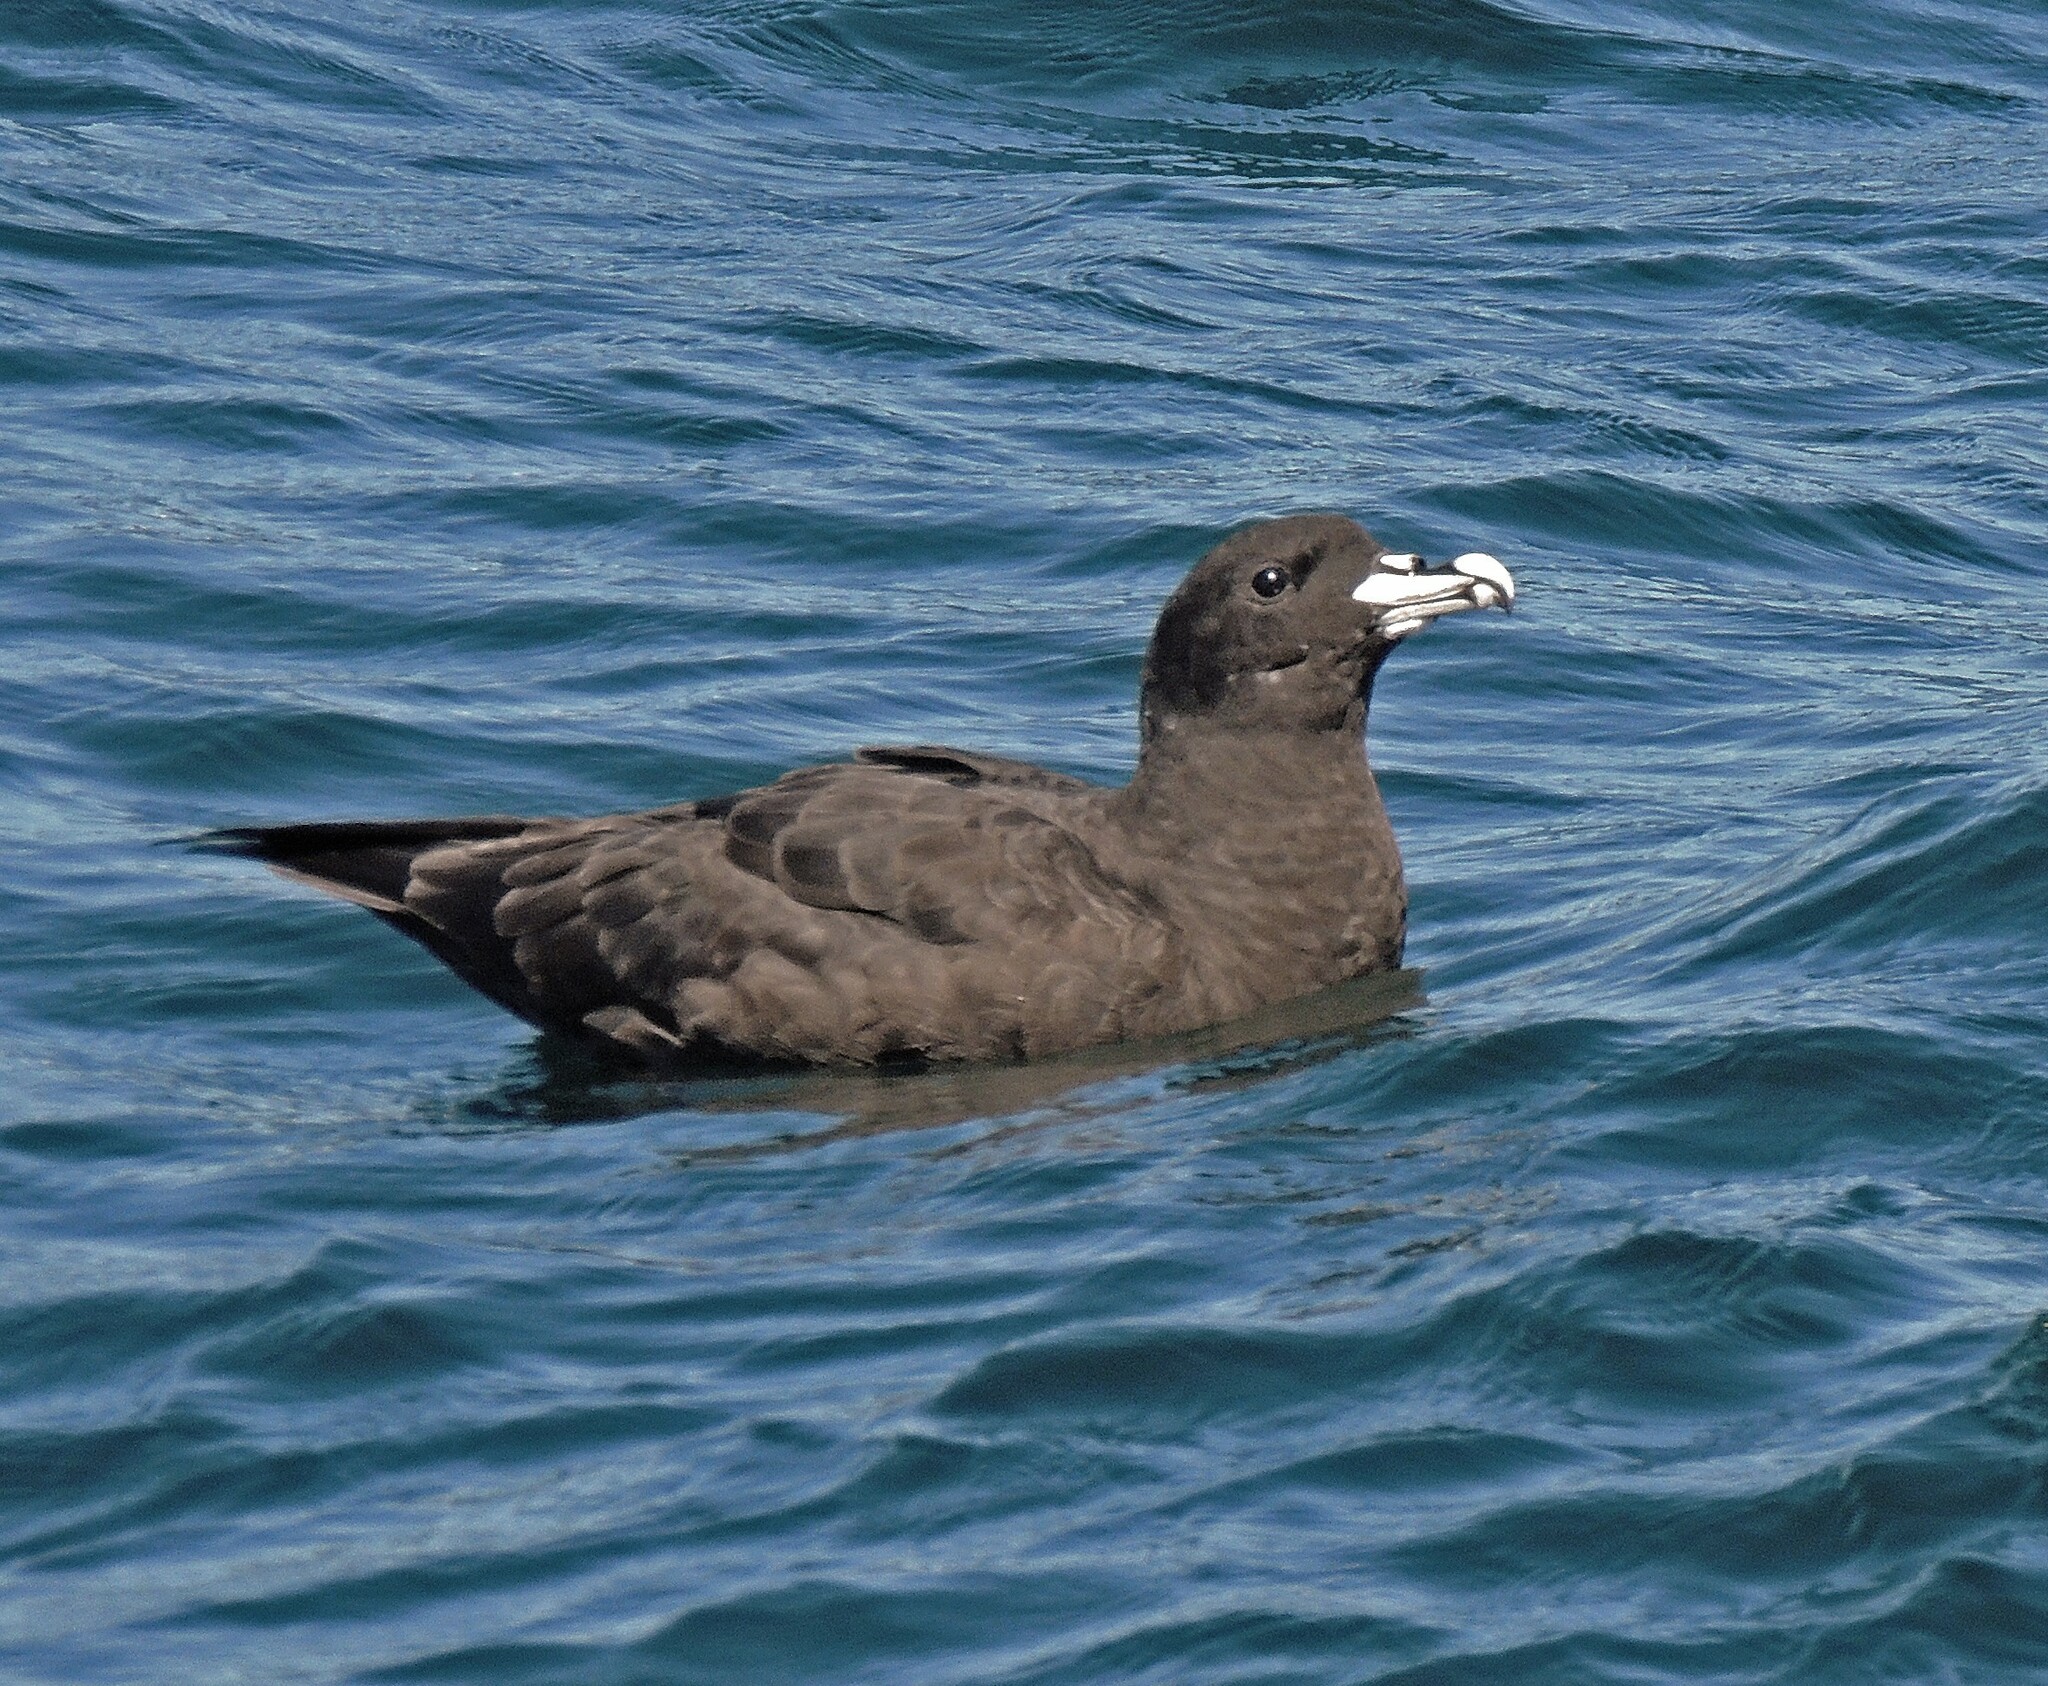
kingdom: Animalia
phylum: Chordata
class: Aves
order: Procellariiformes
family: Procellariidae
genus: Procellaria
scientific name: Procellaria aequinoctialis
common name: White-chinned petrel
